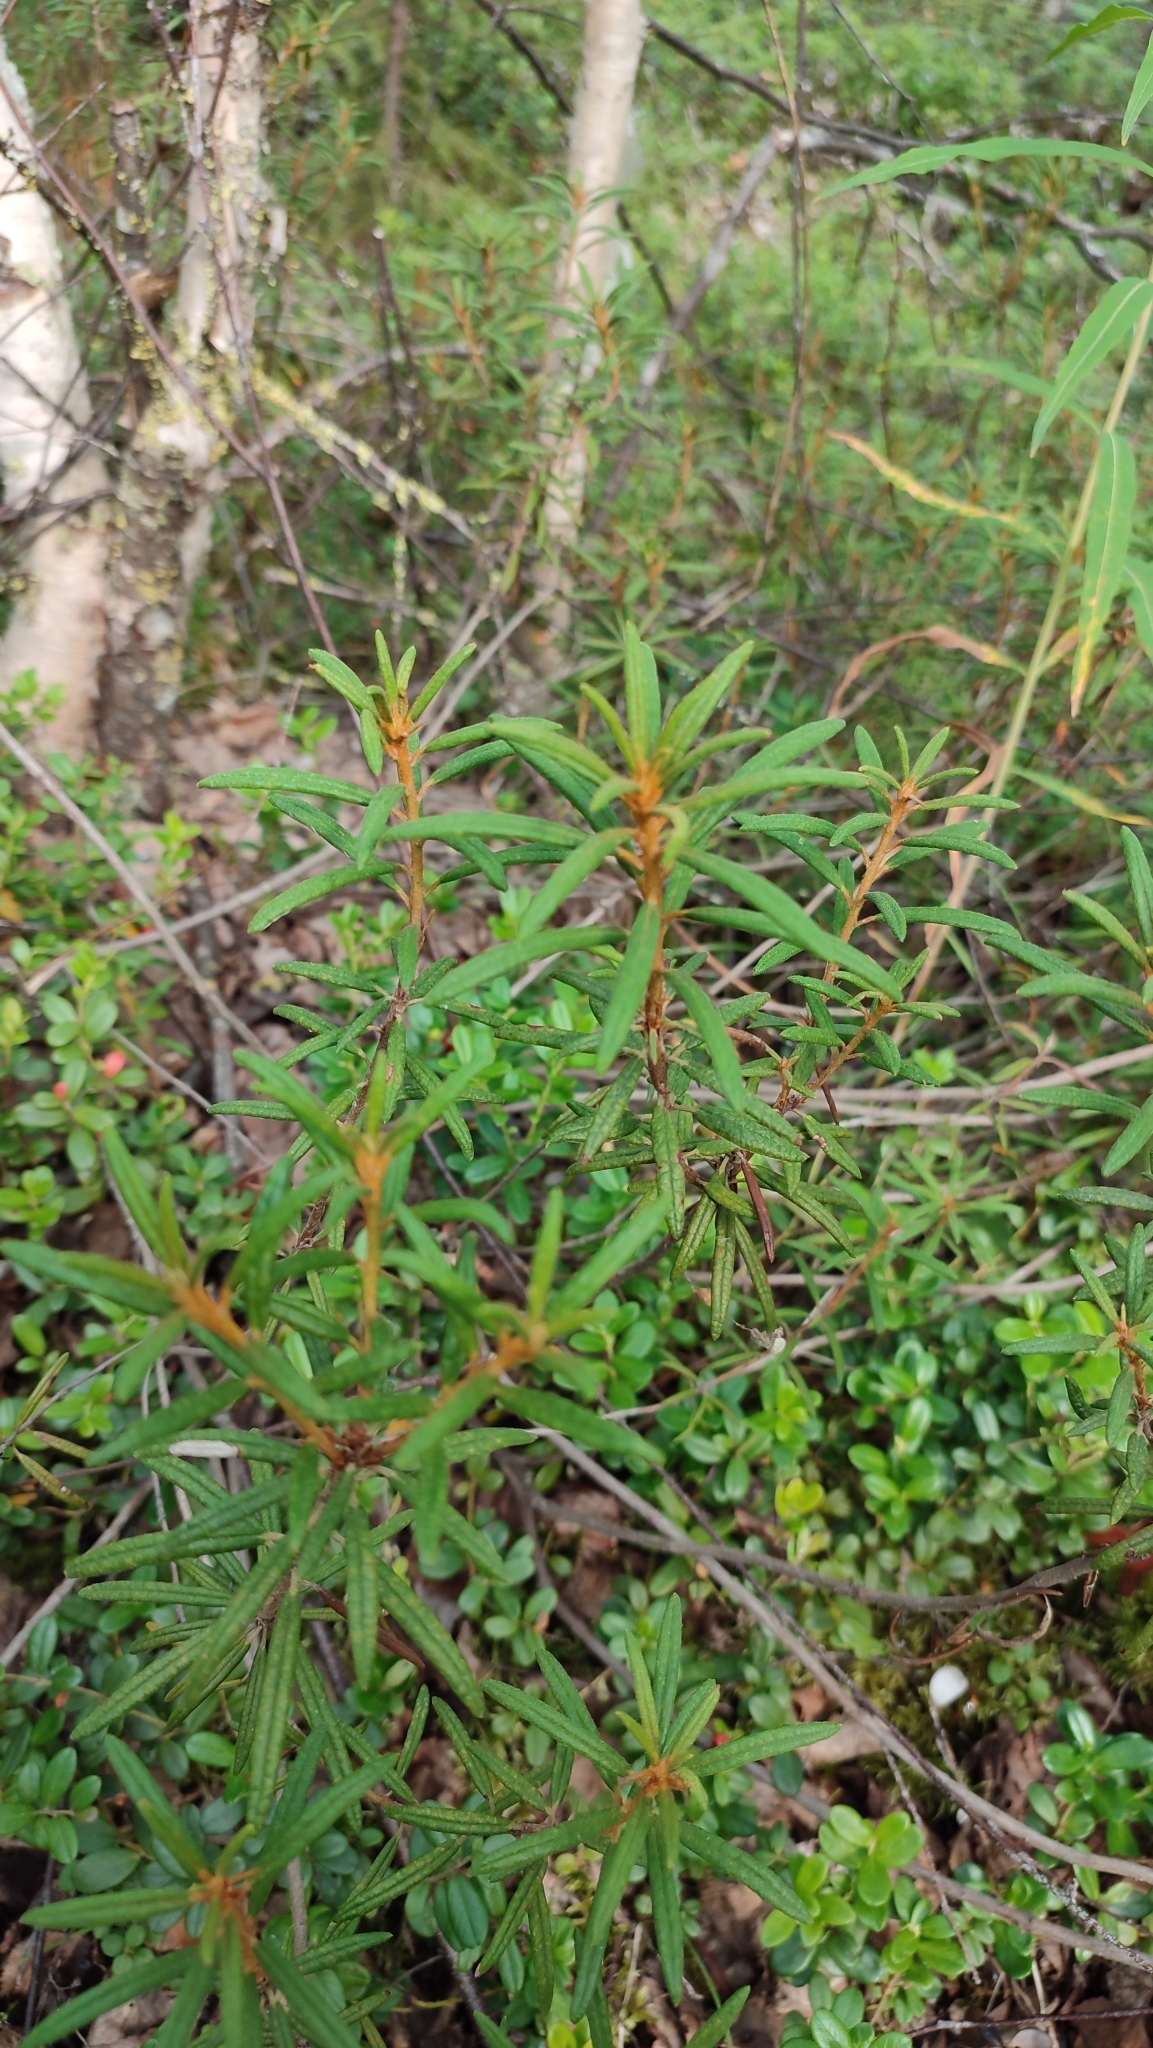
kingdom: Plantae
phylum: Tracheophyta
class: Magnoliopsida
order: Ericales
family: Ericaceae
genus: Rhododendron
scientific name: Rhododendron tomentosum
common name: Marsh labrador tea
